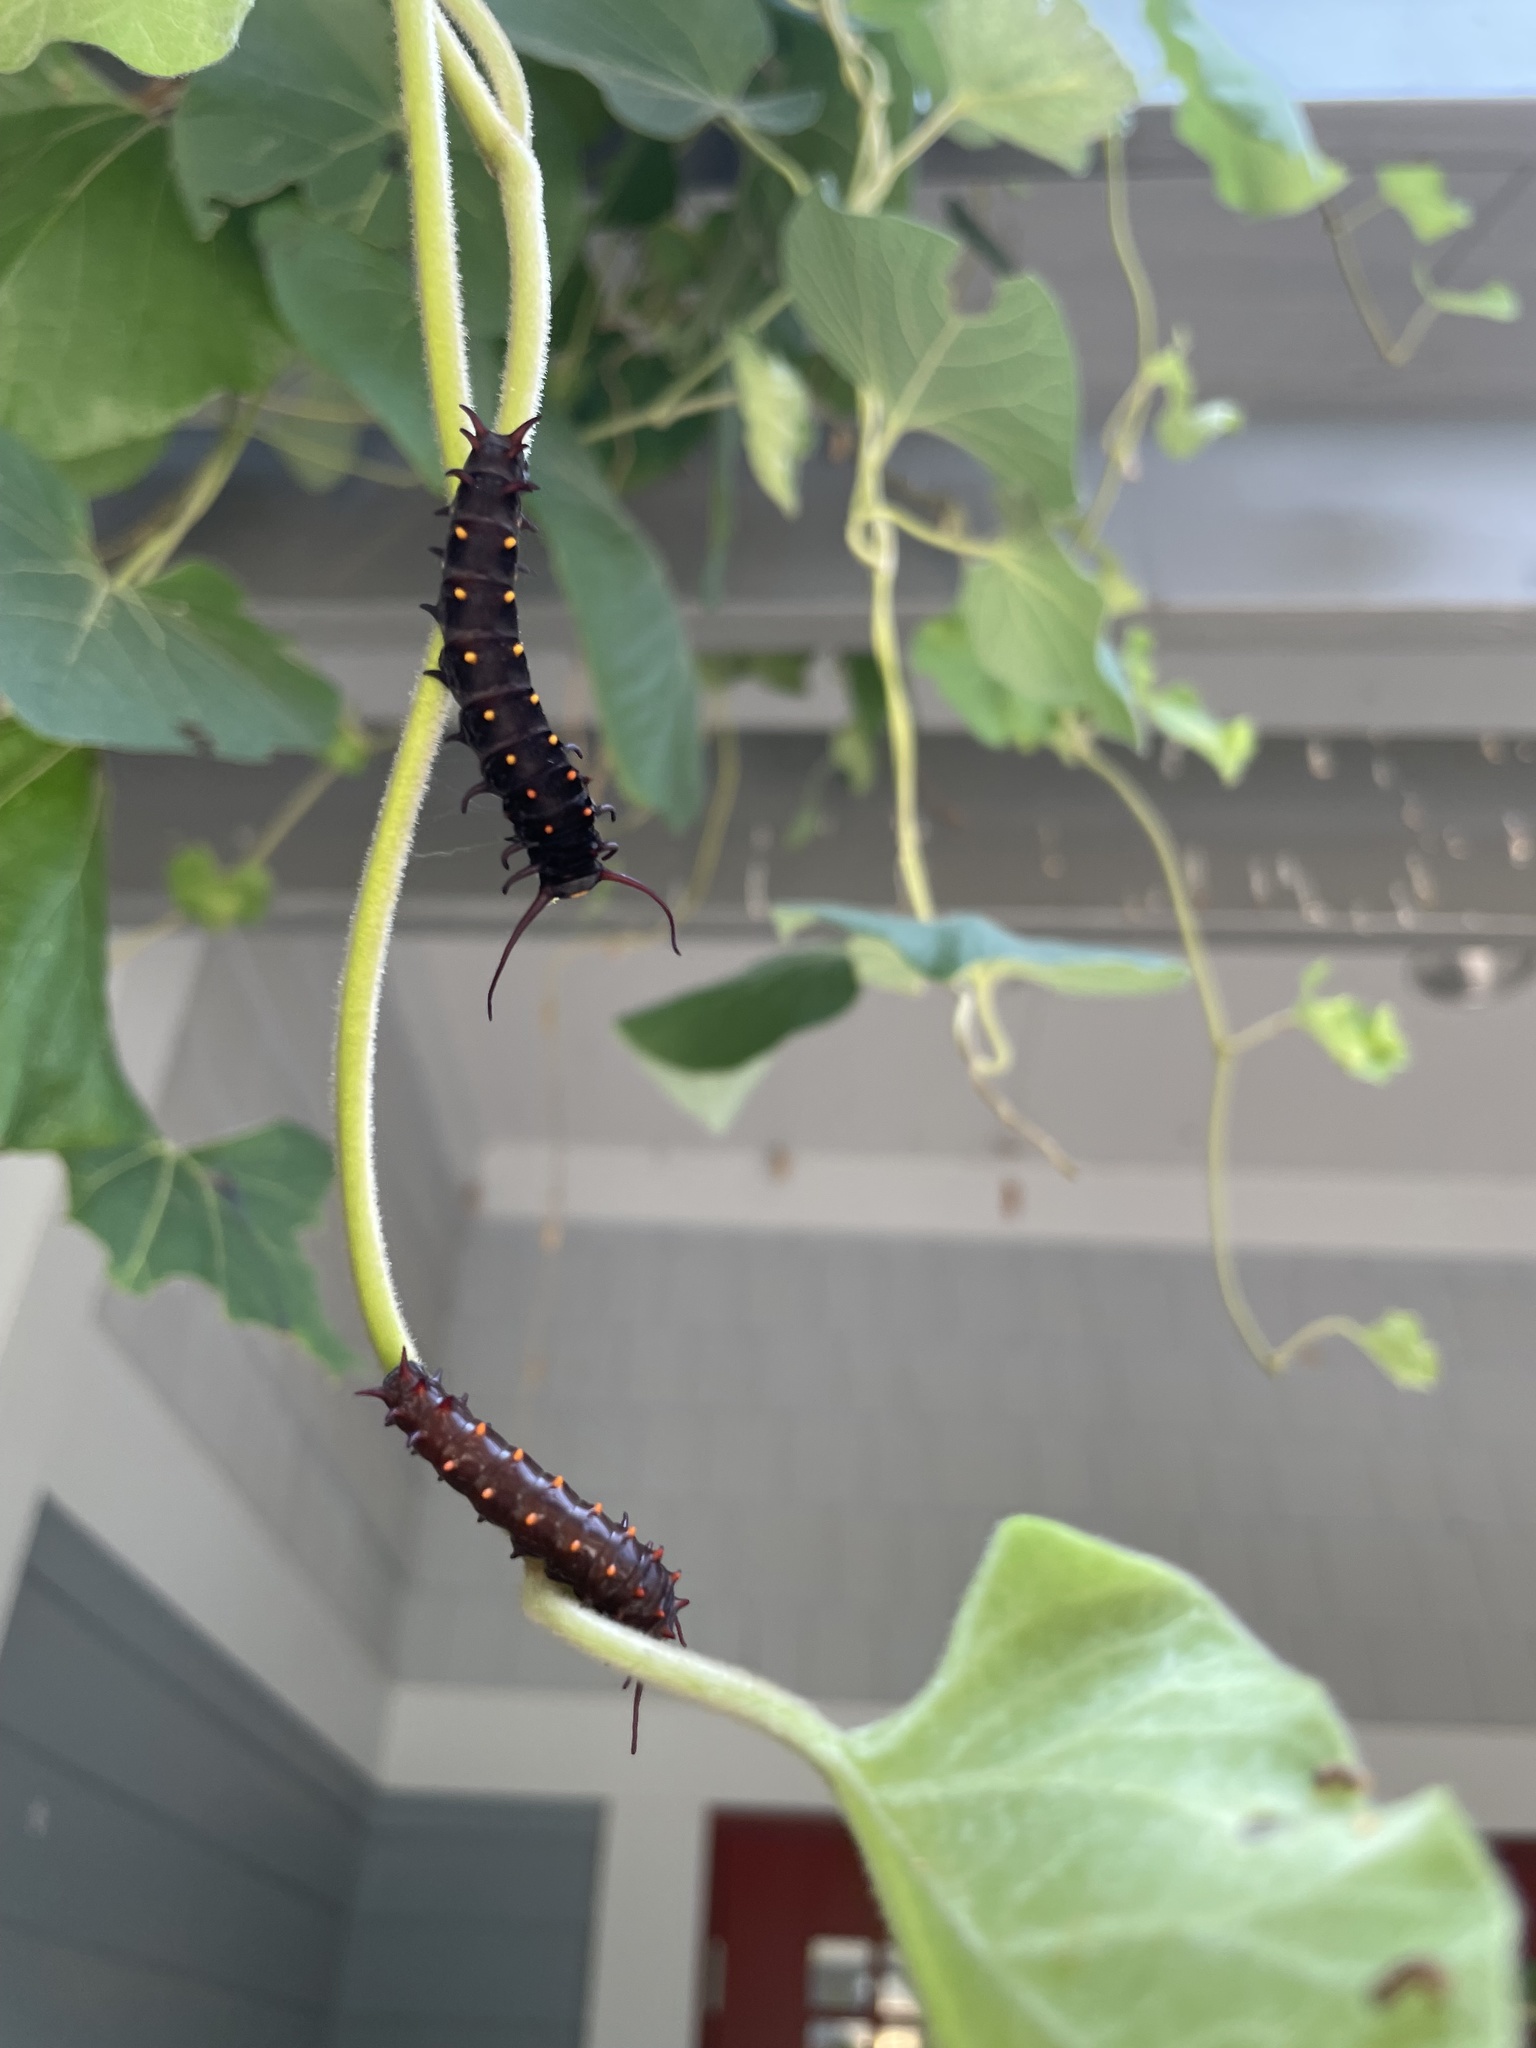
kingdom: Animalia
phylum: Arthropoda
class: Insecta
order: Lepidoptera
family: Papilionidae
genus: Battus
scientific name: Battus philenor
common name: Pipevine swallowtail
